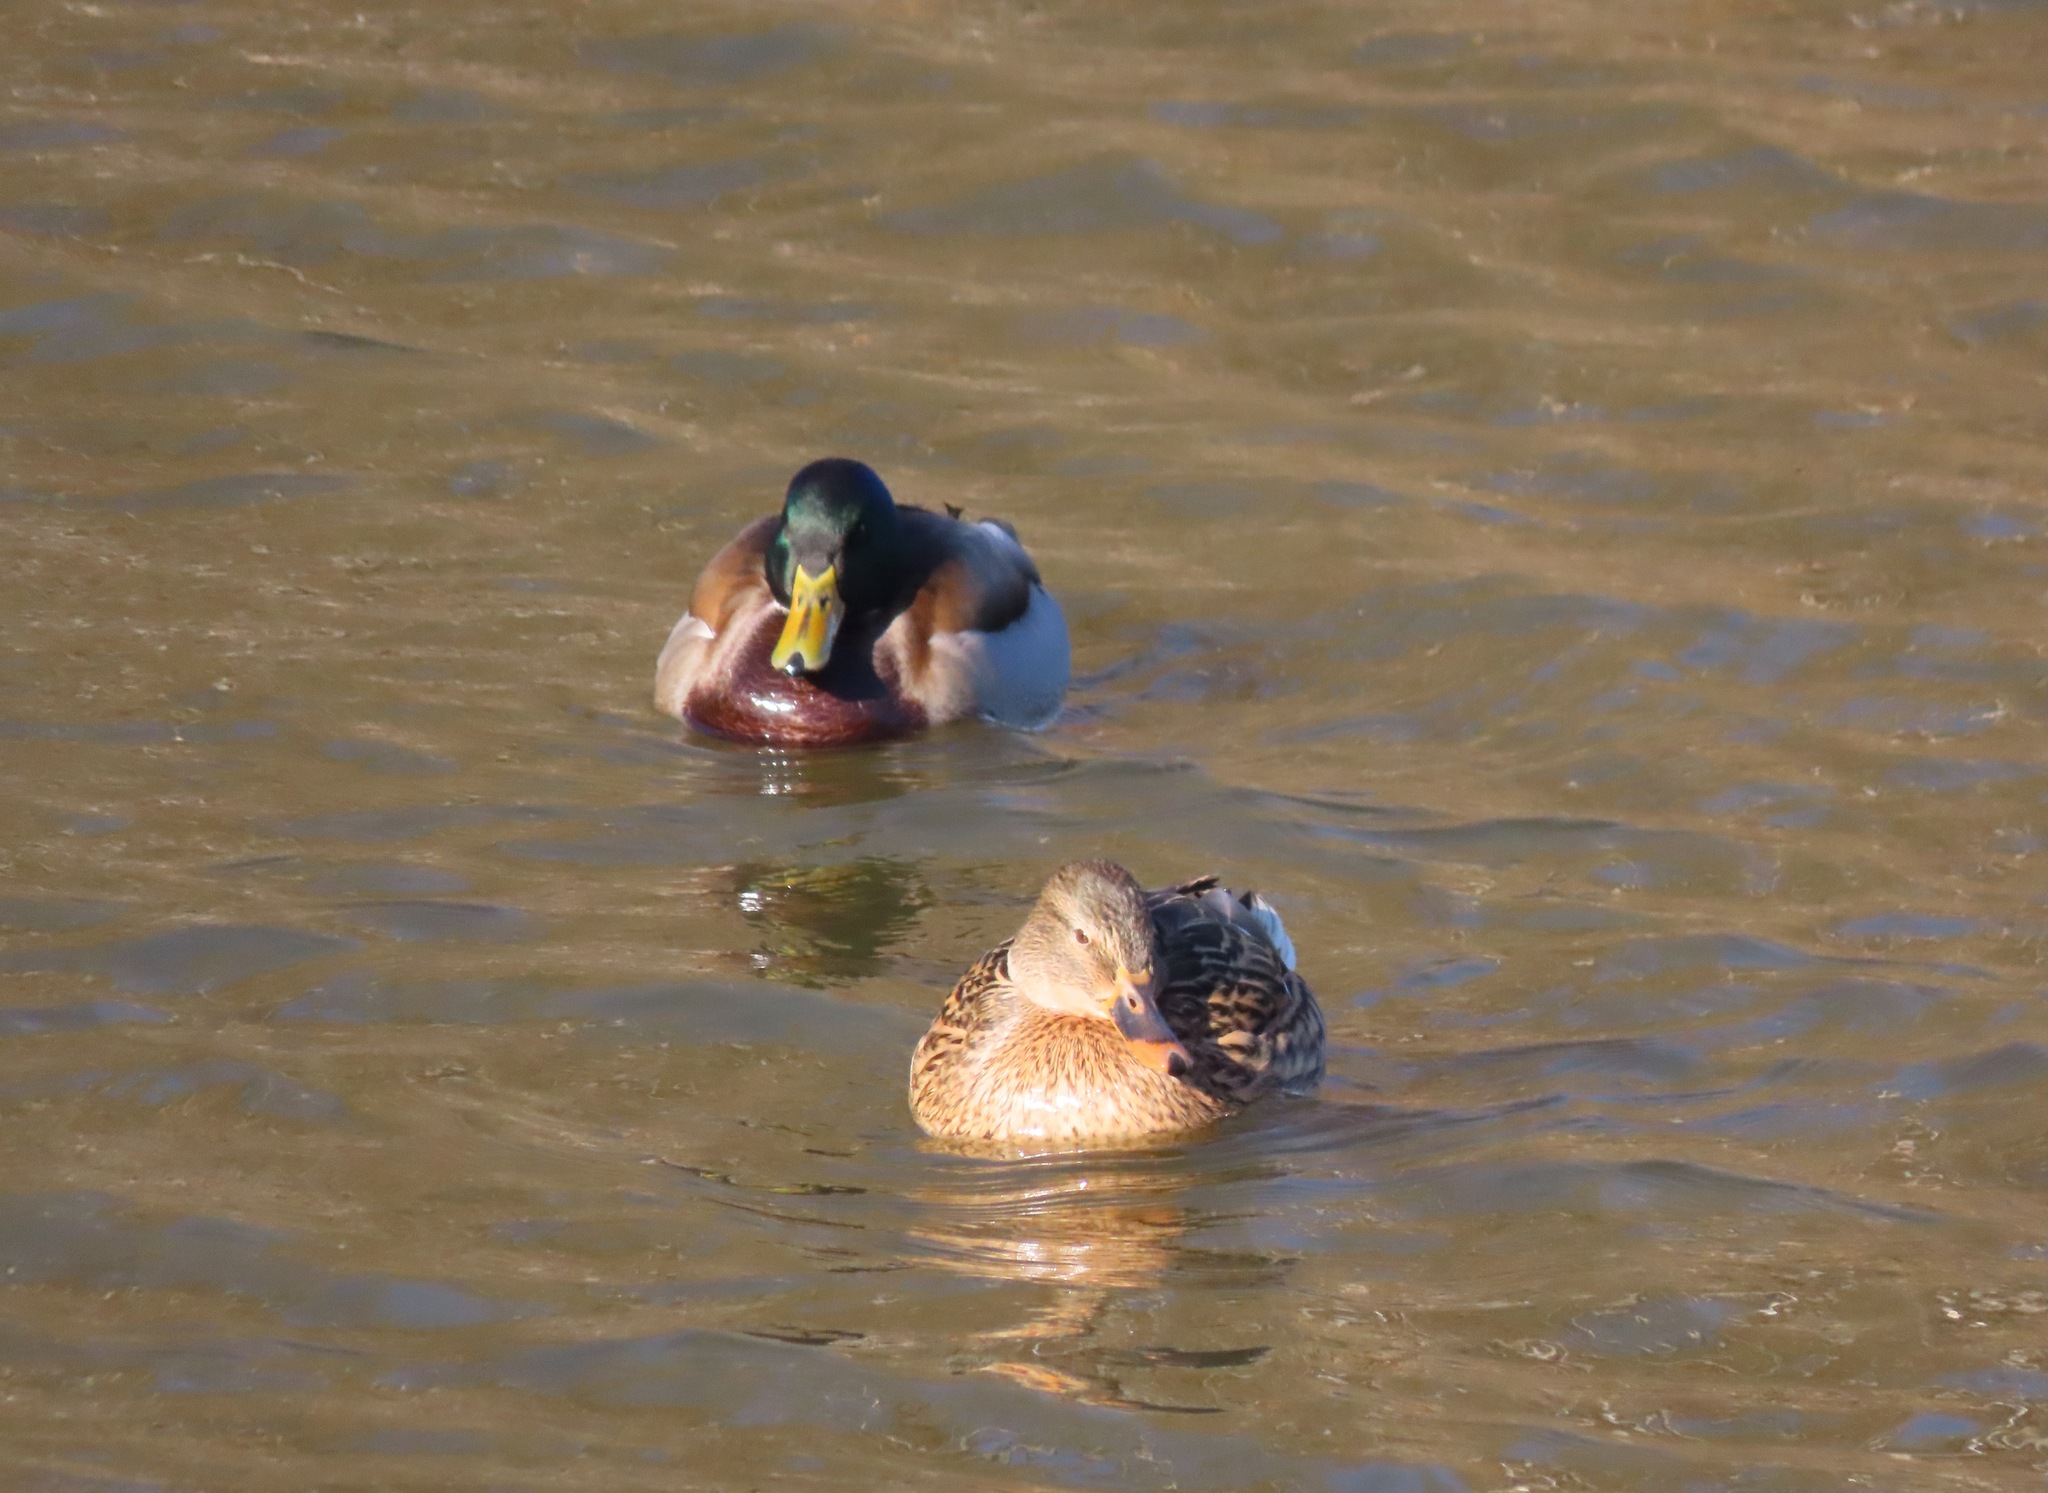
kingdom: Animalia
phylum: Chordata
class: Aves
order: Anseriformes
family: Anatidae
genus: Anas
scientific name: Anas platyrhynchos
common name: Mallard
